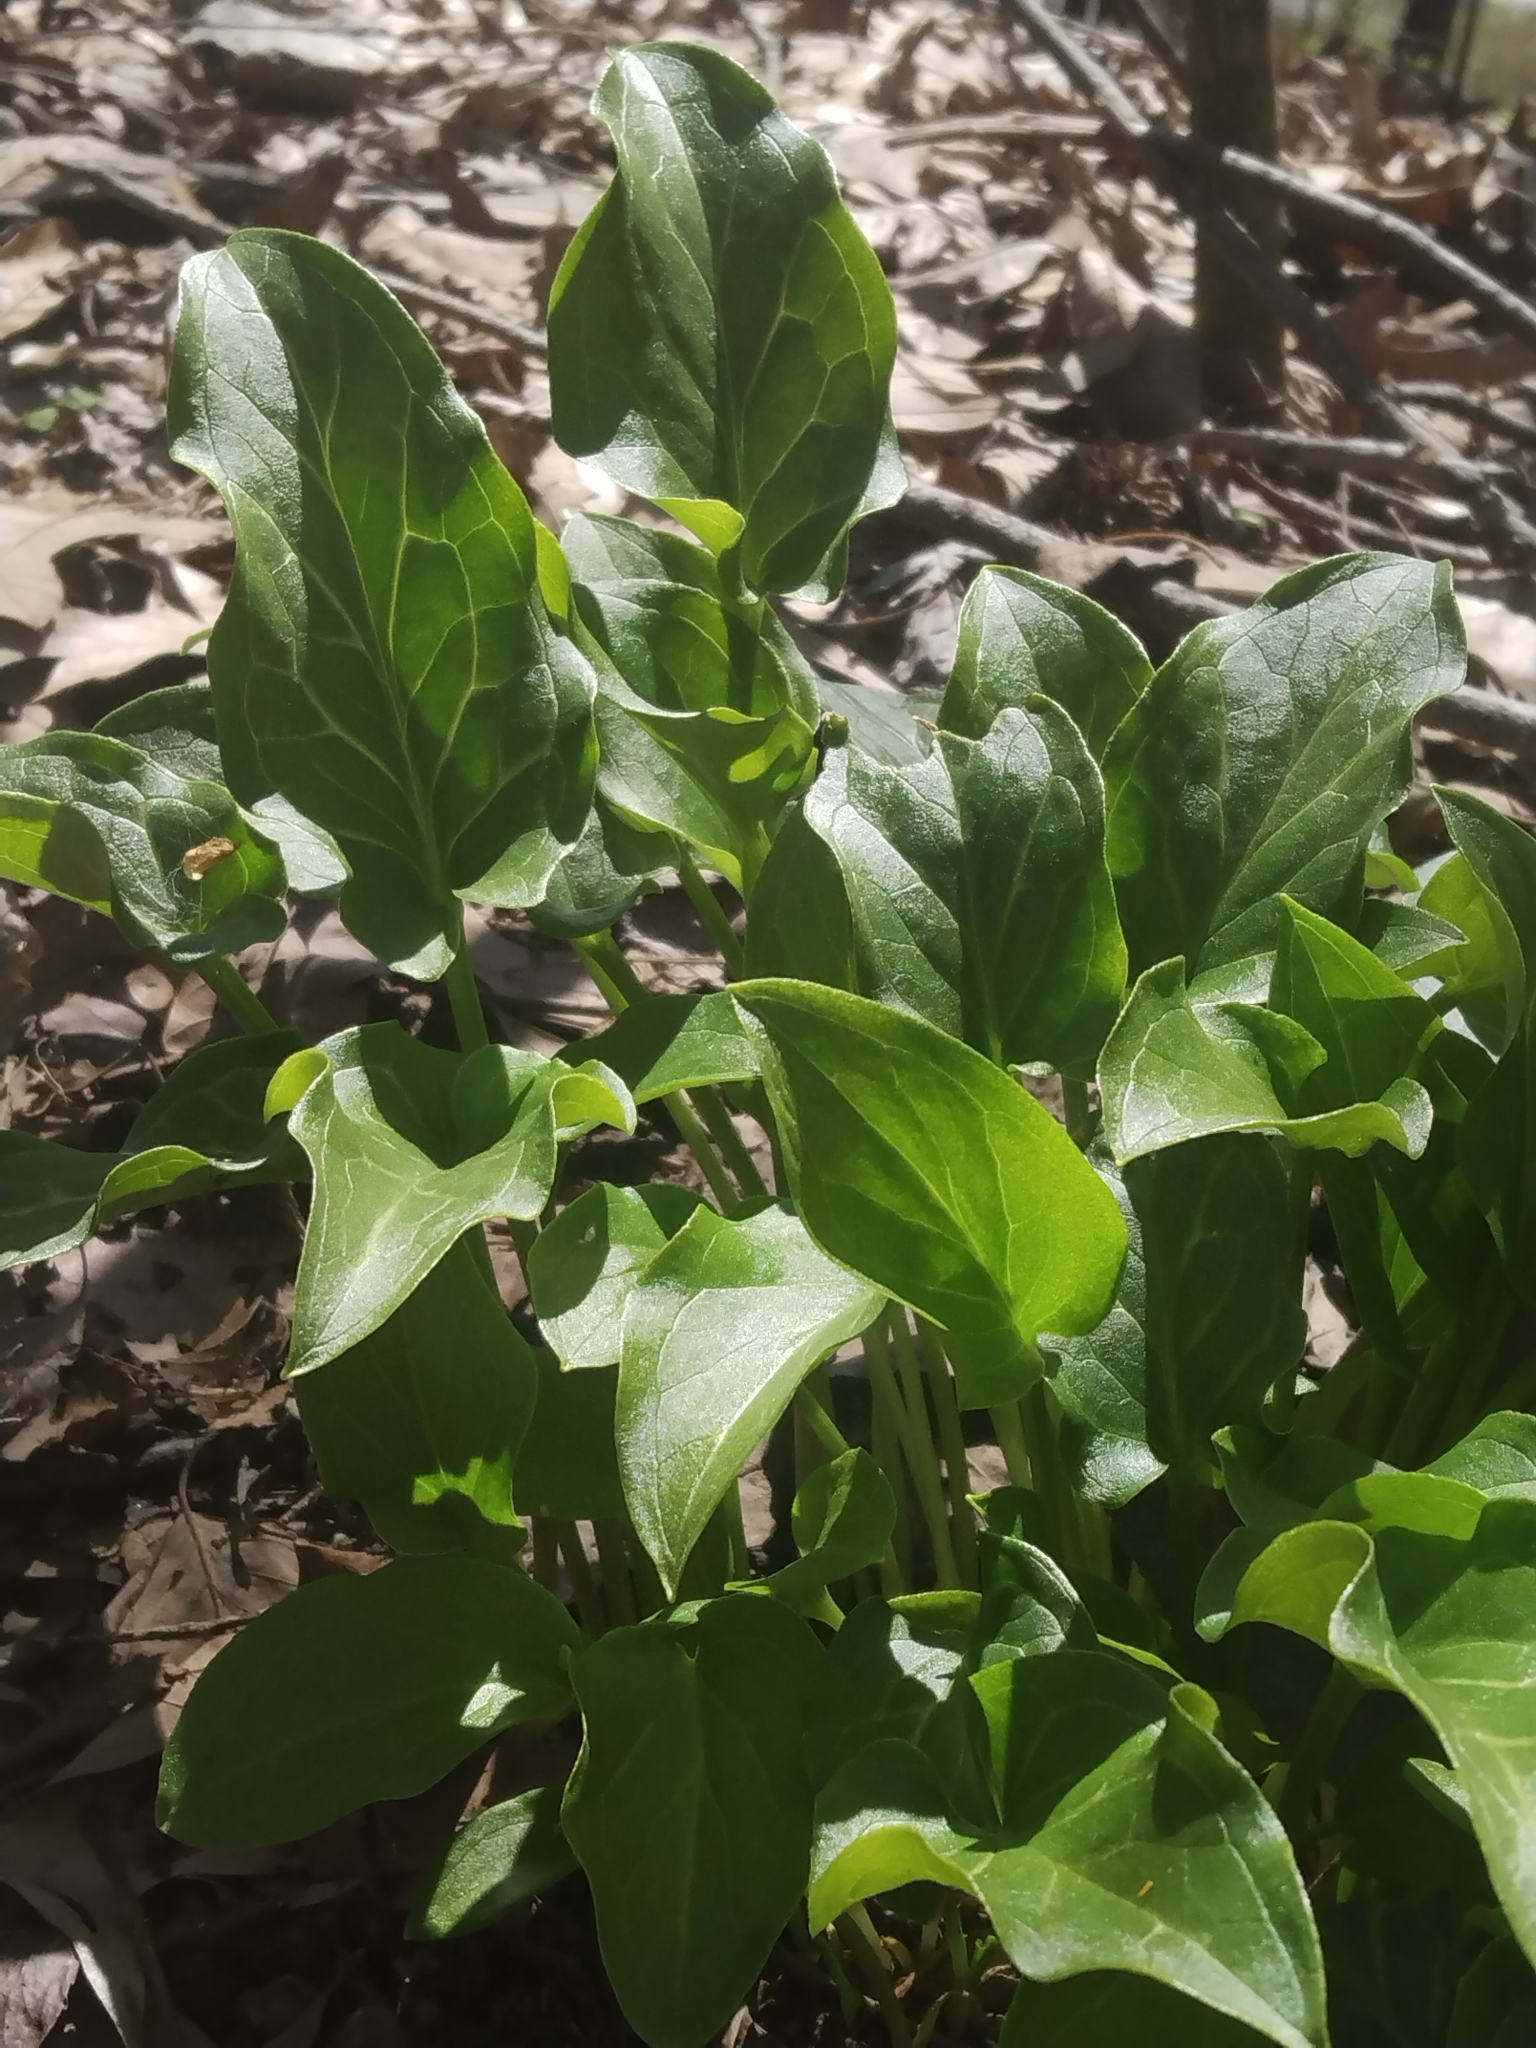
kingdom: Plantae
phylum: Tracheophyta
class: Liliopsida
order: Alismatales
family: Araceae
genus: Arum
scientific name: Arum italicum
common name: Italian lords-and-ladies
